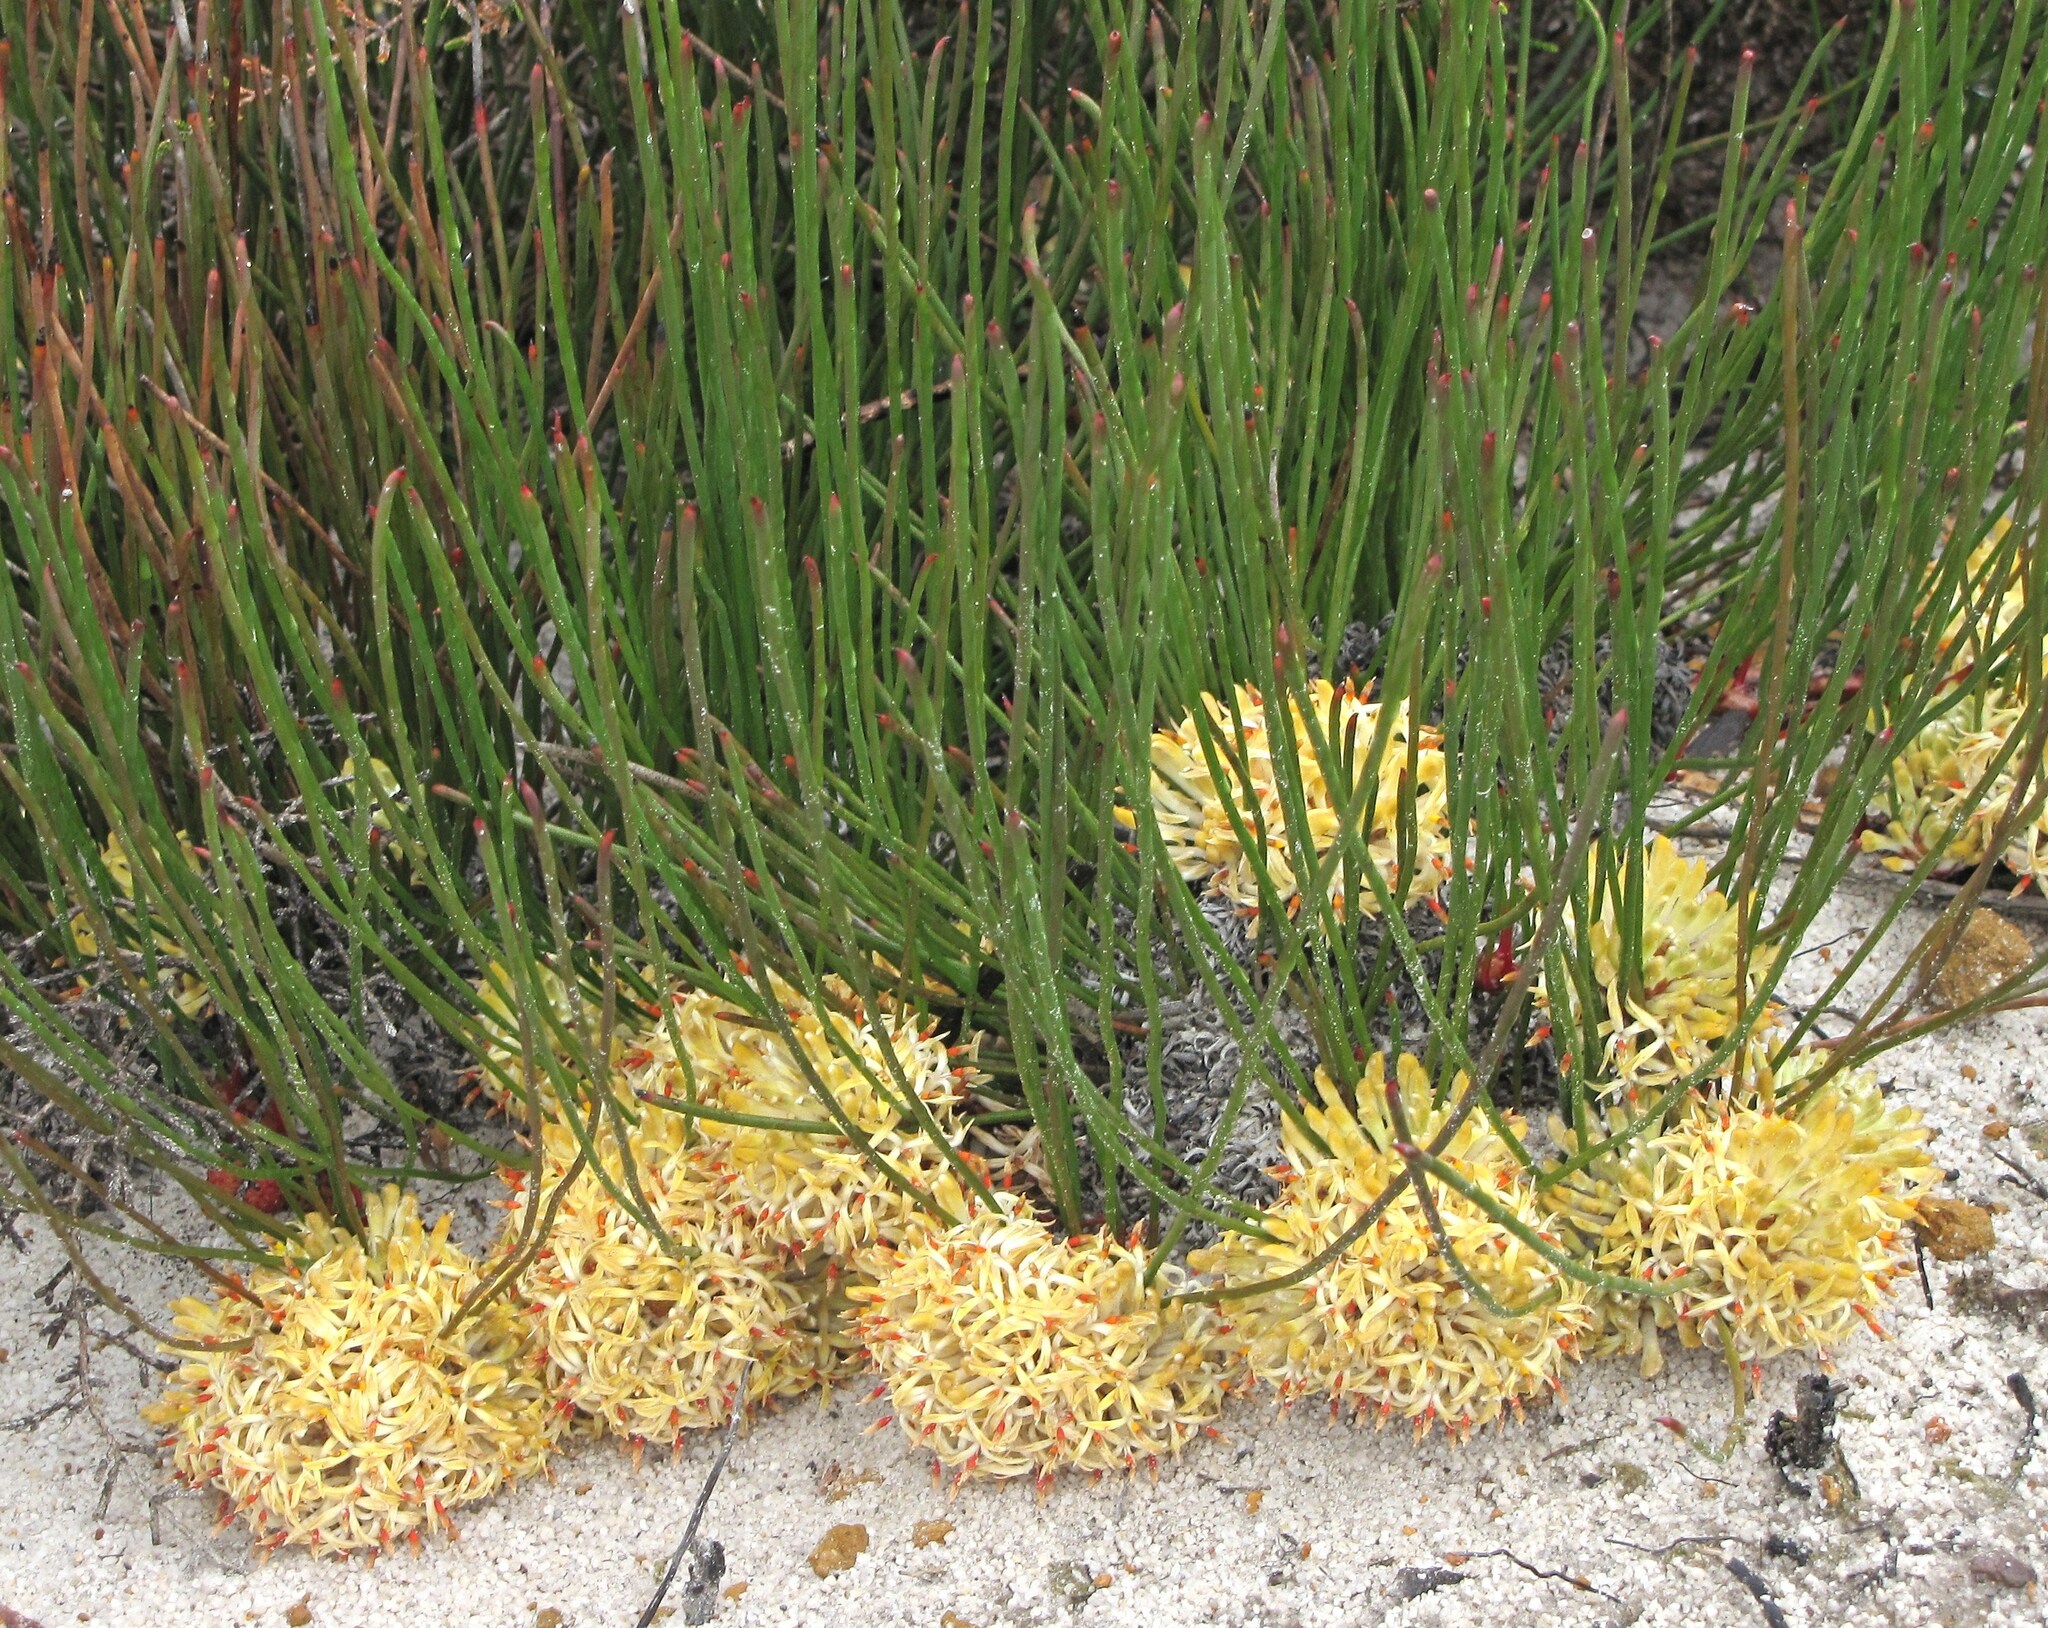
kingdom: Plantae
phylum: Tracheophyta
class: Magnoliopsida
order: Proteales
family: Proteaceae
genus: Petrophile
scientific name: Petrophile prostrata
